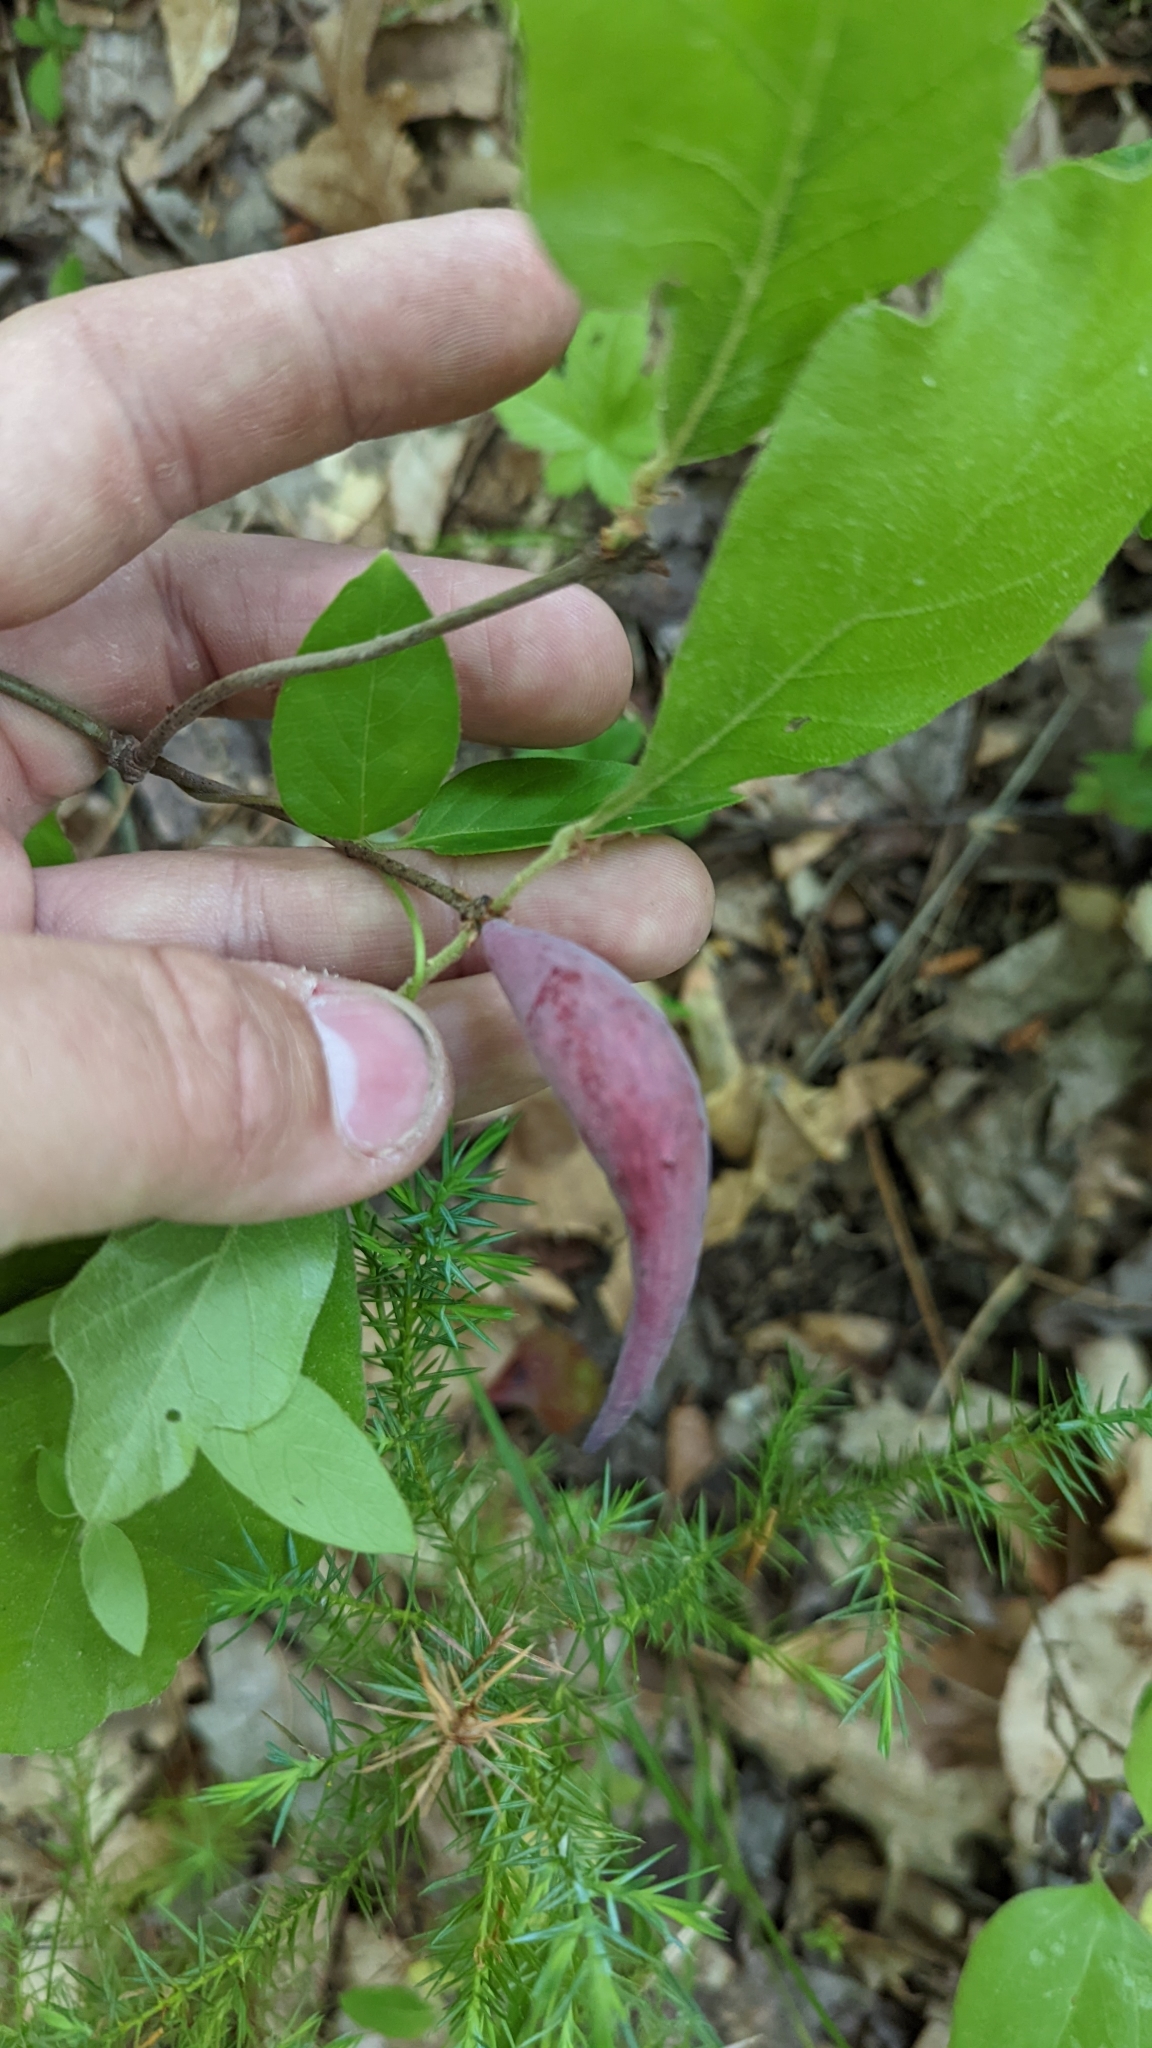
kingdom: Animalia
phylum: Arthropoda
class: Insecta
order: Hymenoptera
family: Cynipidae
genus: Amphibolips
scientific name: Amphibolips
